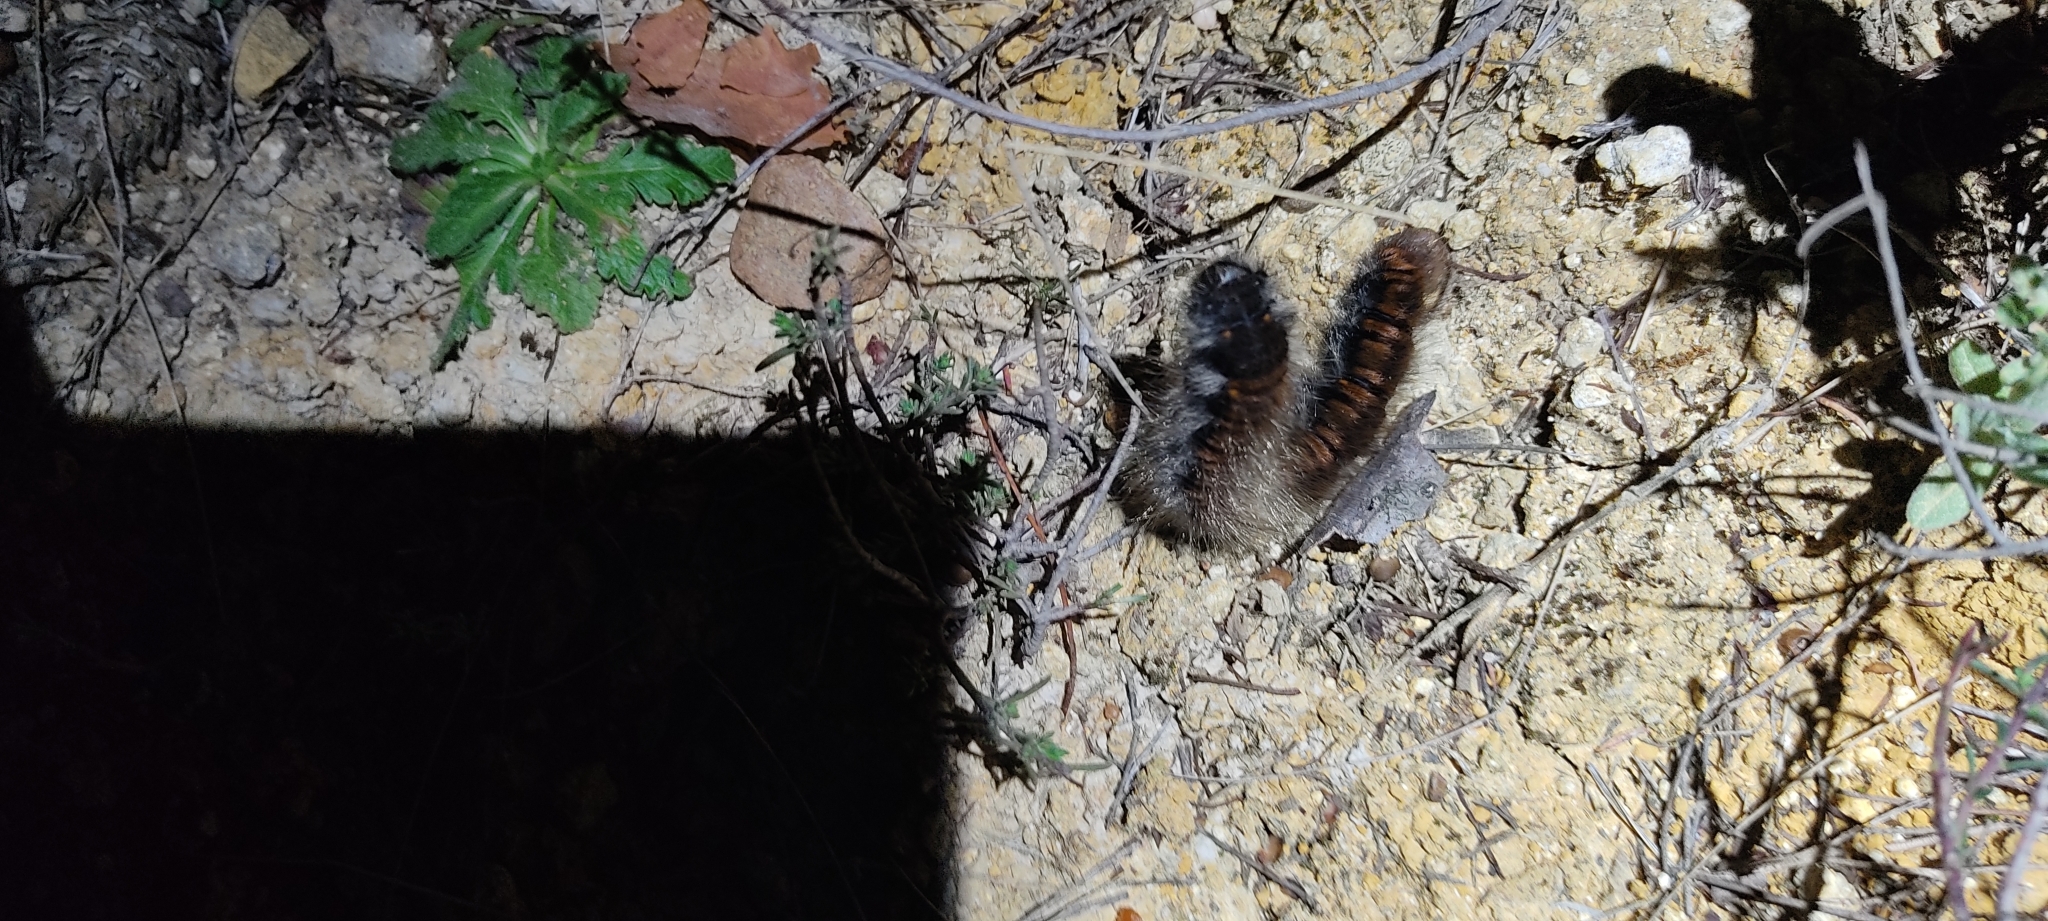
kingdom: Animalia
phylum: Arthropoda
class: Insecta
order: Lepidoptera
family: Lasiocampidae
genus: Macrothylacia
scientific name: Macrothylacia rubi
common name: Fox moth
